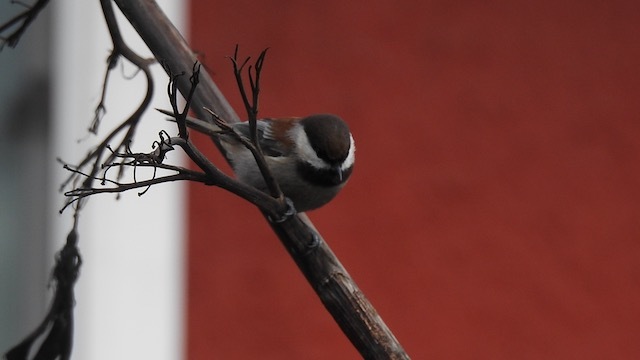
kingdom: Animalia
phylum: Chordata
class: Aves
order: Passeriformes
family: Paridae
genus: Poecile
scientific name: Poecile rufescens
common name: Chestnut-backed chickadee
